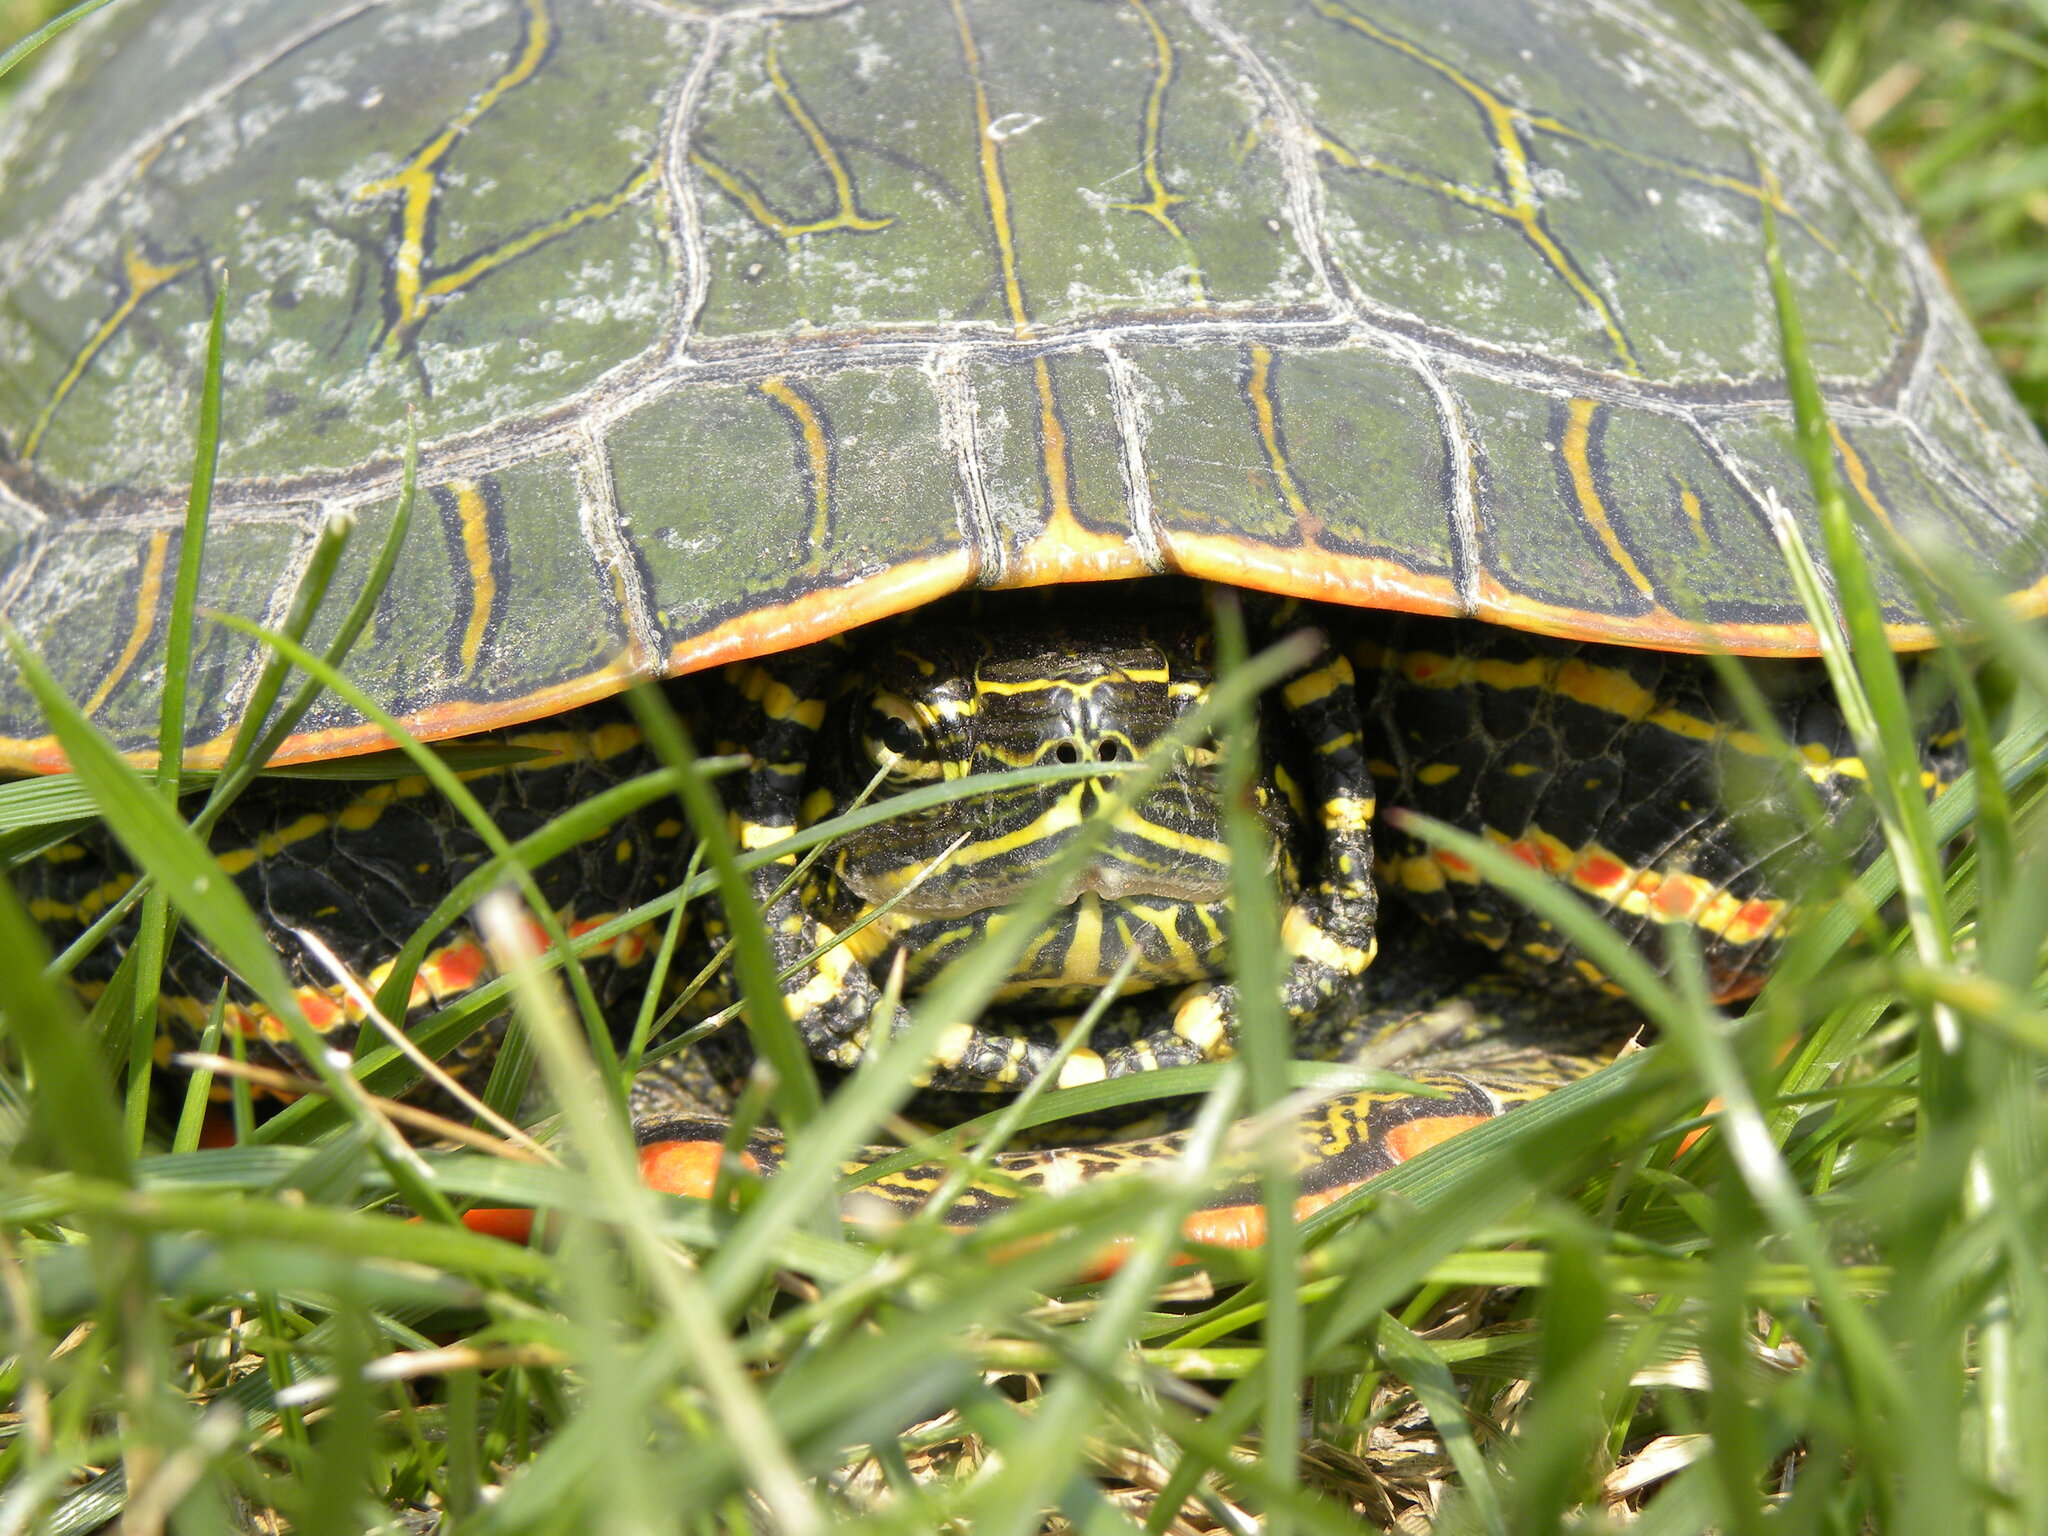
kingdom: Animalia
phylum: Chordata
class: Testudines
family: Emydidae
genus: Chrysemys
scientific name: Chrysemys picta
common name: Painted turtle
